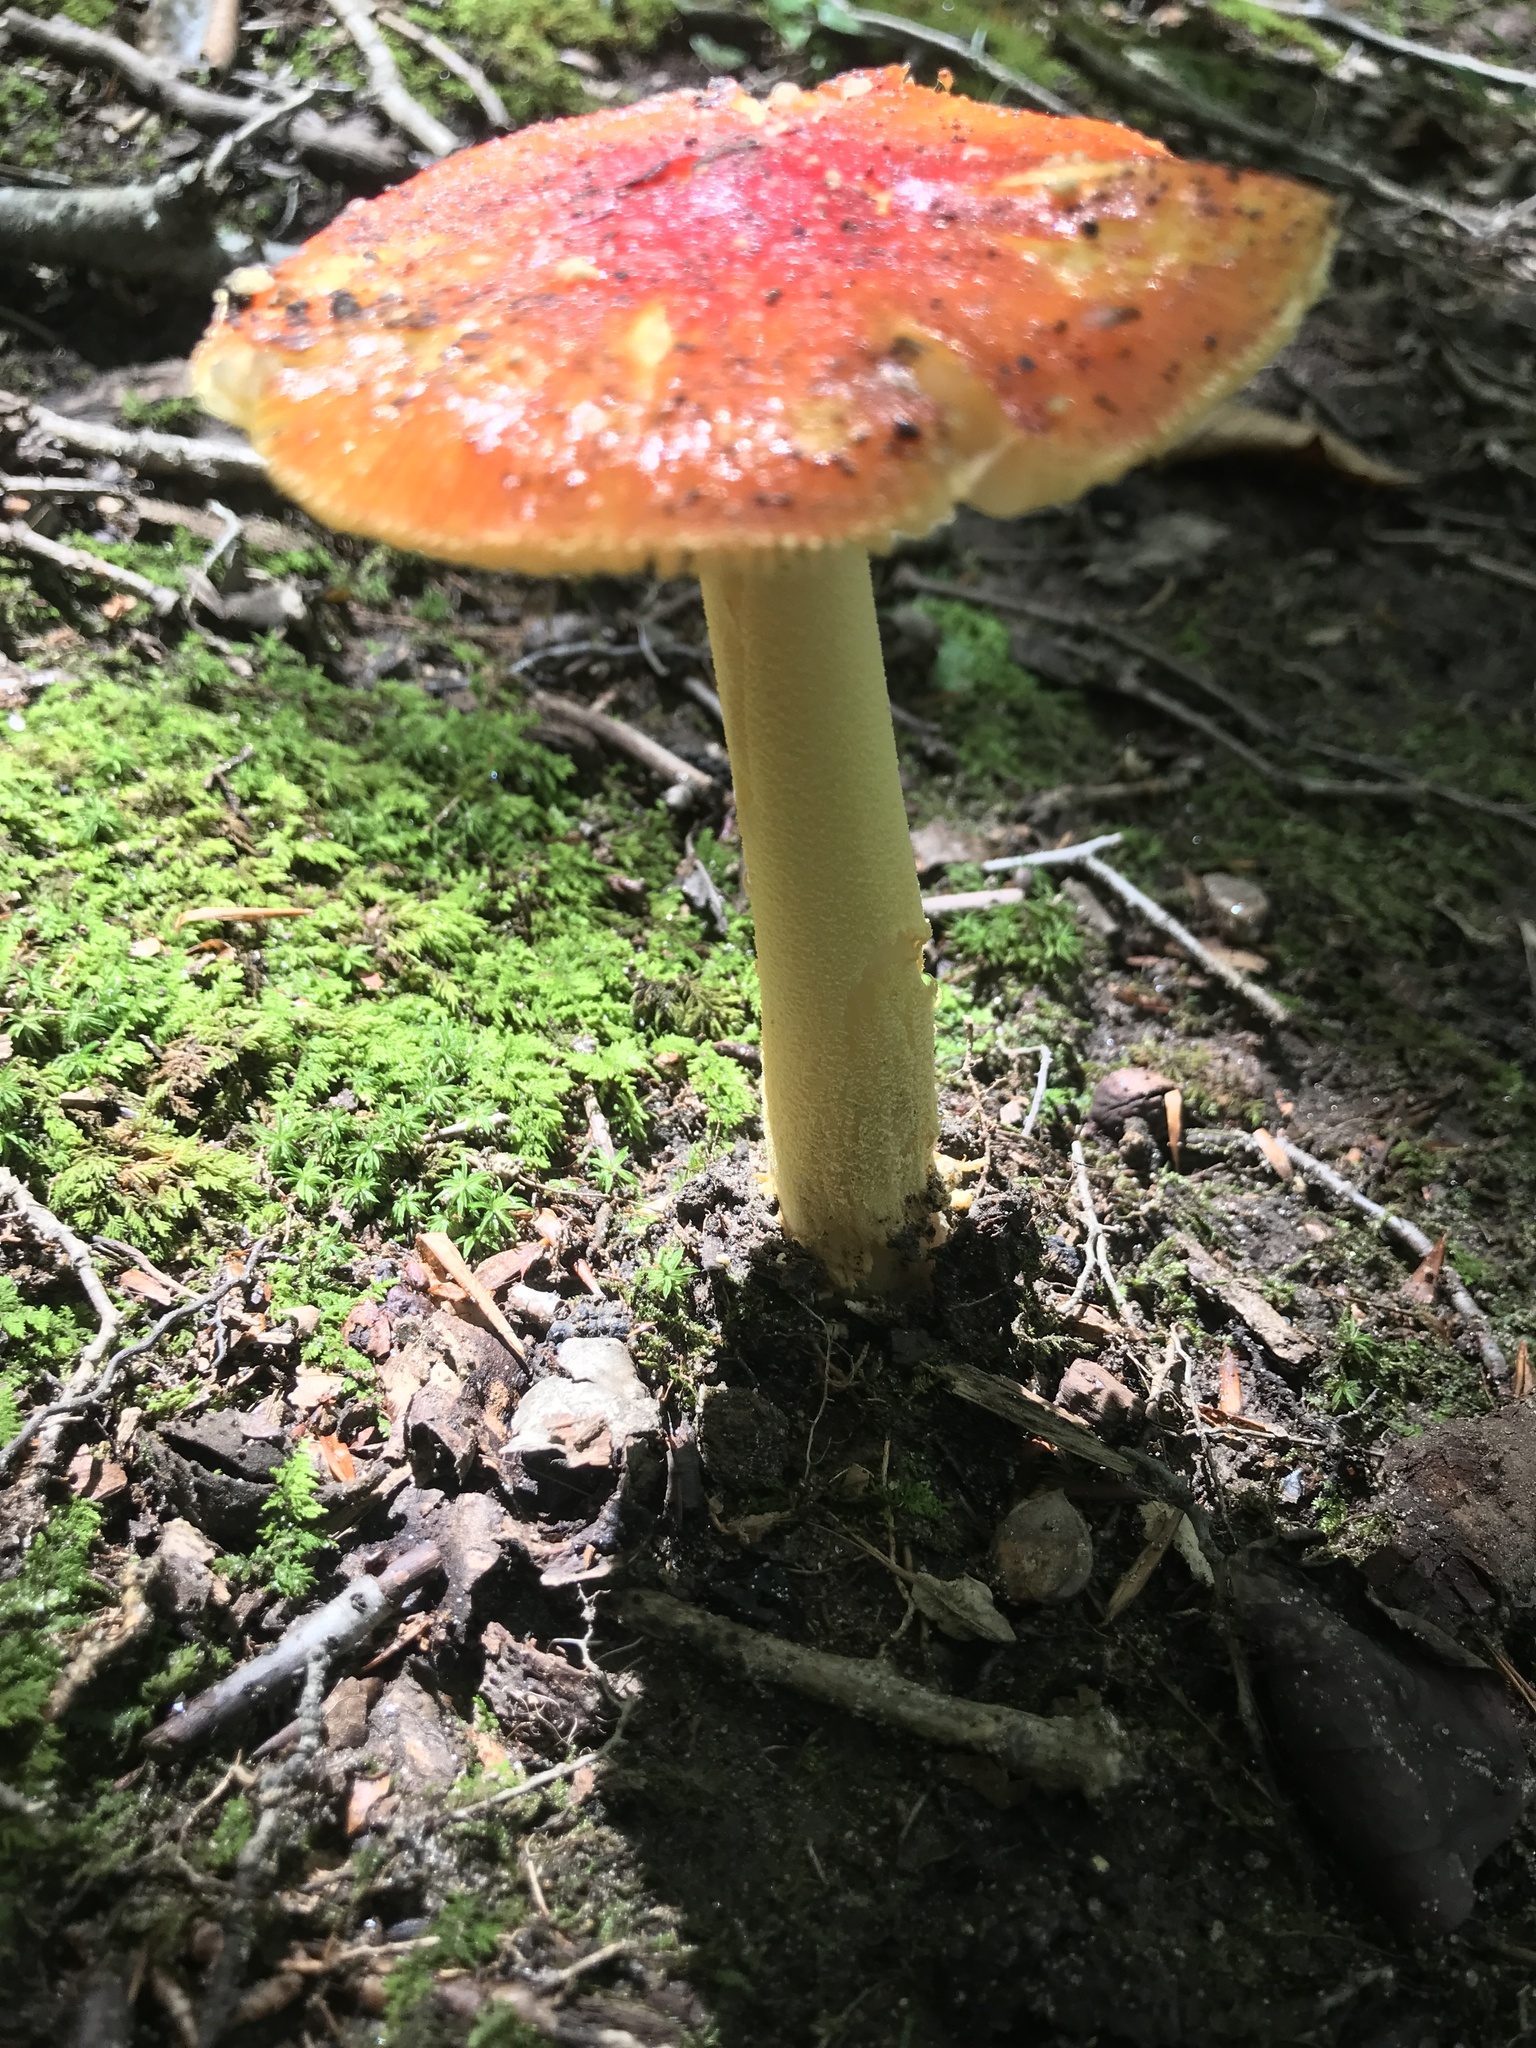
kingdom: Fungi
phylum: Basidiomycota
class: Agaricomycetes
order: Agaricales
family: Amanitaceae
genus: Amanita
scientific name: Amanita parcivolvata
